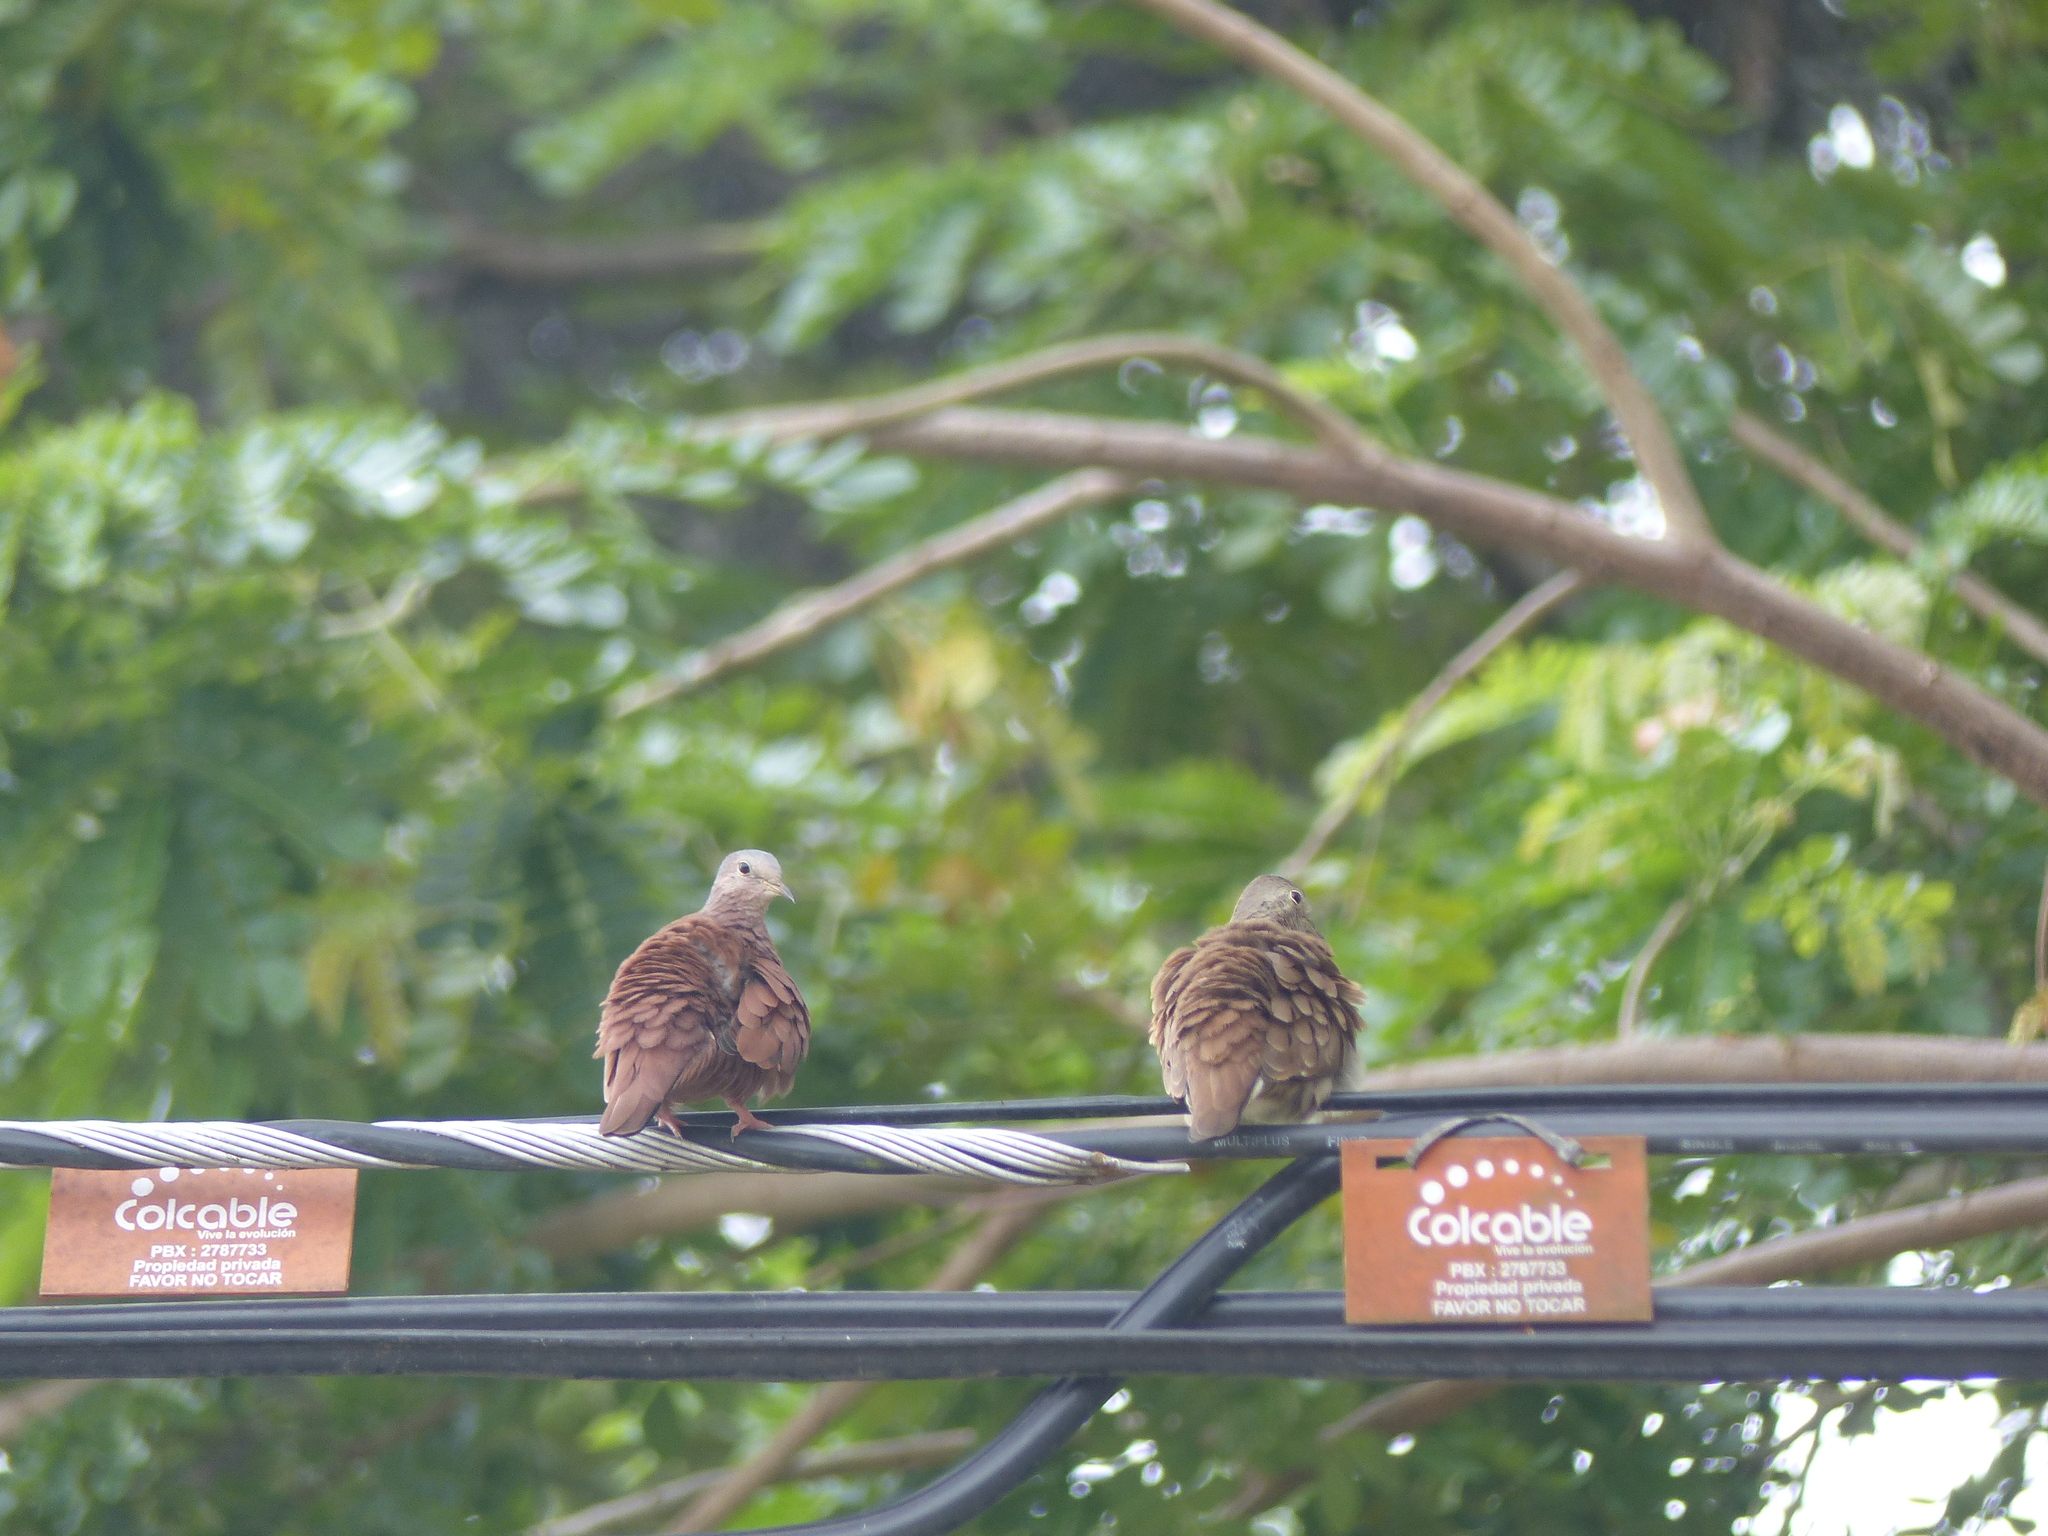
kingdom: Animalia
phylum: Chordata
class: Aves
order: Columbiformes
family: Columbidae
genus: Columbina
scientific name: Columbina talpacoti
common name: Ruddy ground dove
